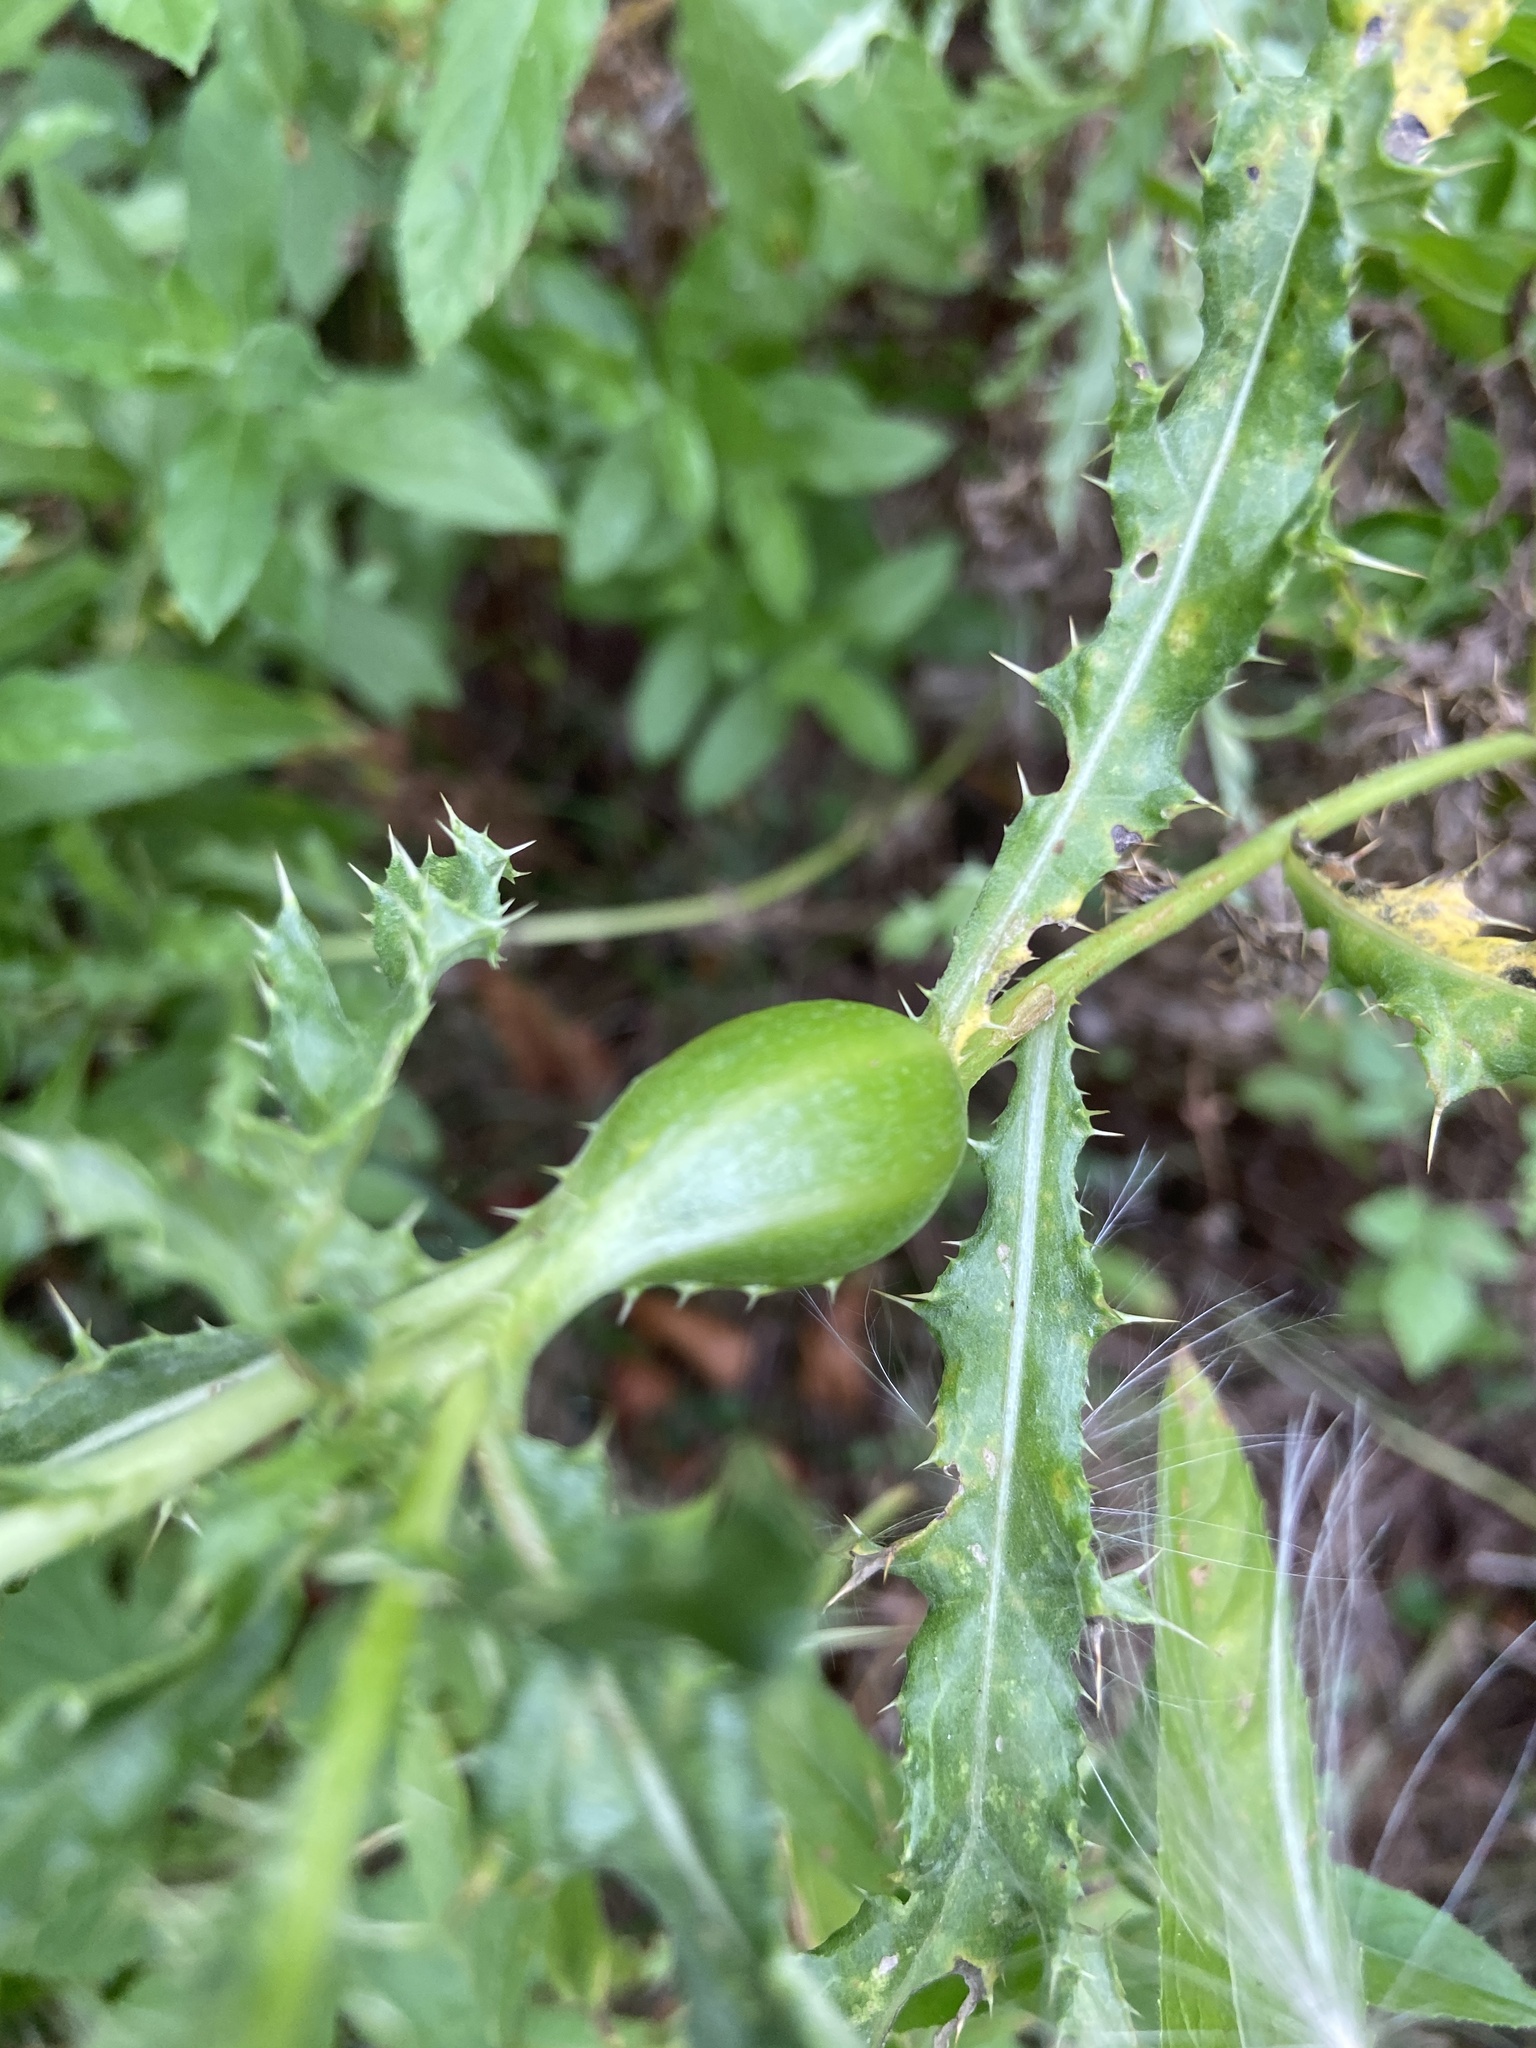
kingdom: Animalia
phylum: Arthropoda
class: Insecta
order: Diptera
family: Tephritidae
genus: Urophora
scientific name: Urophora cardui
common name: Fruit fly
